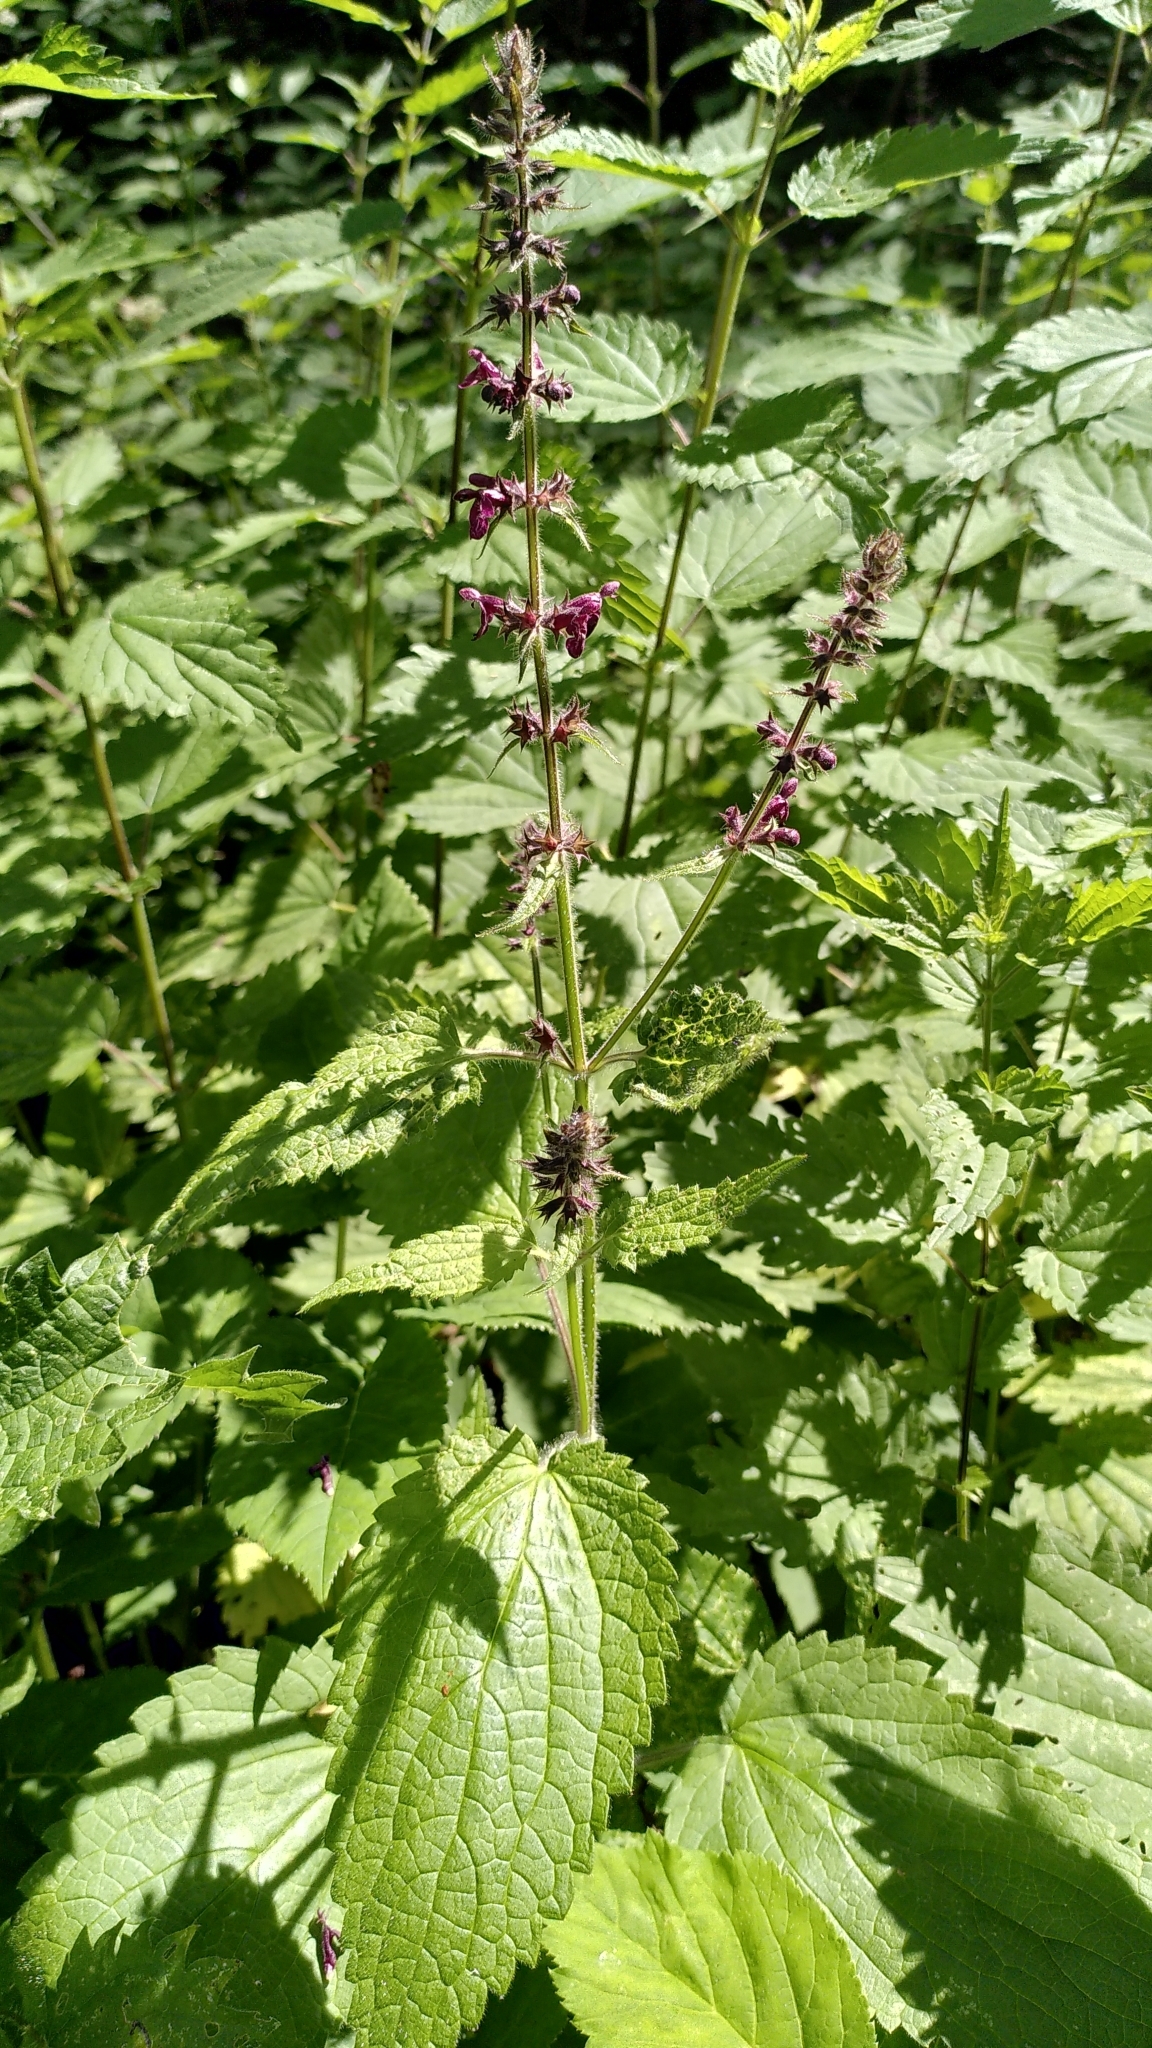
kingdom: Plantae
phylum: Tracheophyta
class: Magnoliopsida
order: Lamiales
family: Lamiaceae
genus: Stachys
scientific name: Stachys sylvatica
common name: Hedge woundwort
